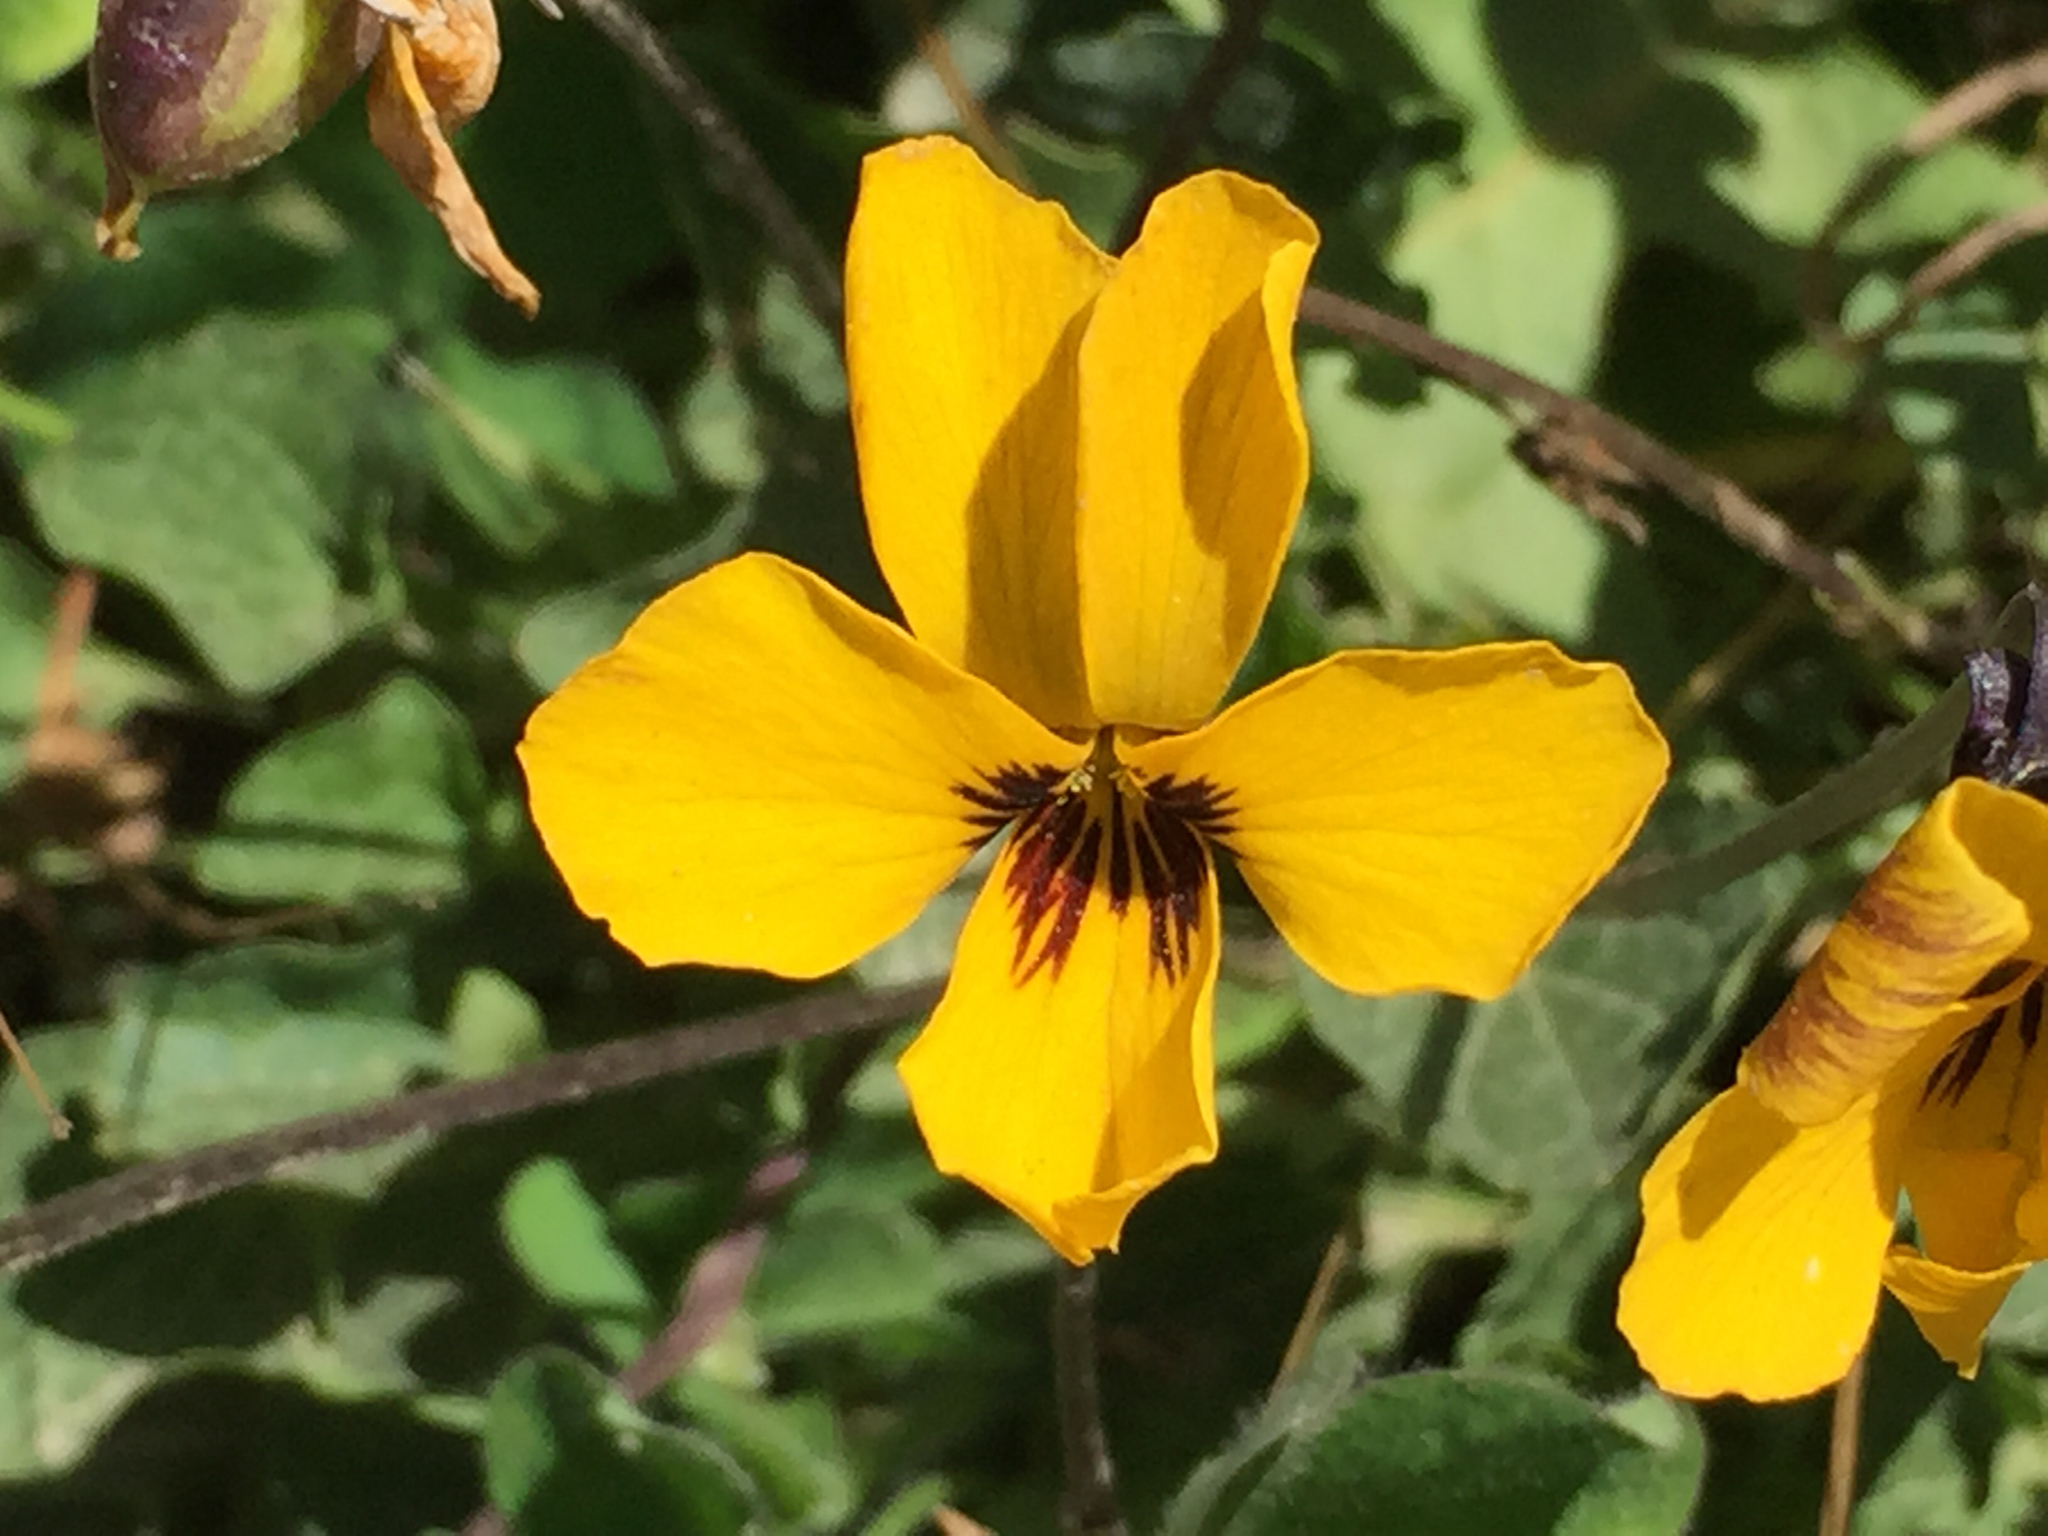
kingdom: Plantae
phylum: Tracheophyta
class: Magnoliopsida
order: Malpighiales
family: Violaceae
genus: Viola
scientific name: Viola pedunculata
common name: California golden violet
